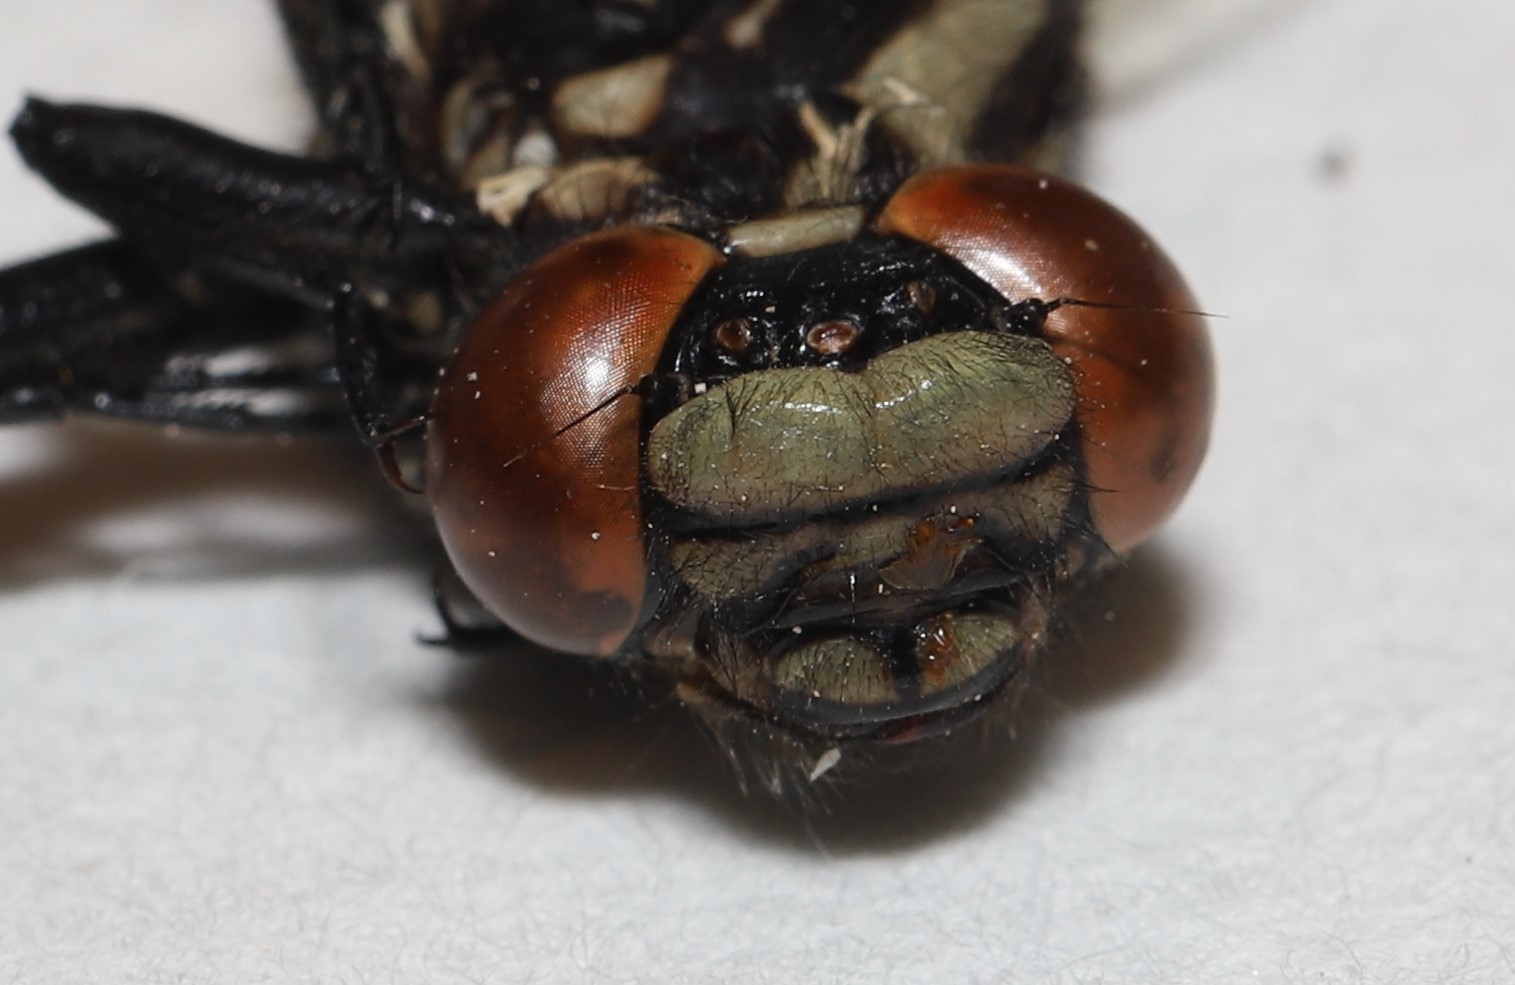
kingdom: Animalia
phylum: Arthropoda
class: Insecta
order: Odonata
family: Gomphidae
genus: Hylogomphus
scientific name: Hylogomphus adelphus
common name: Mustached clubtail
